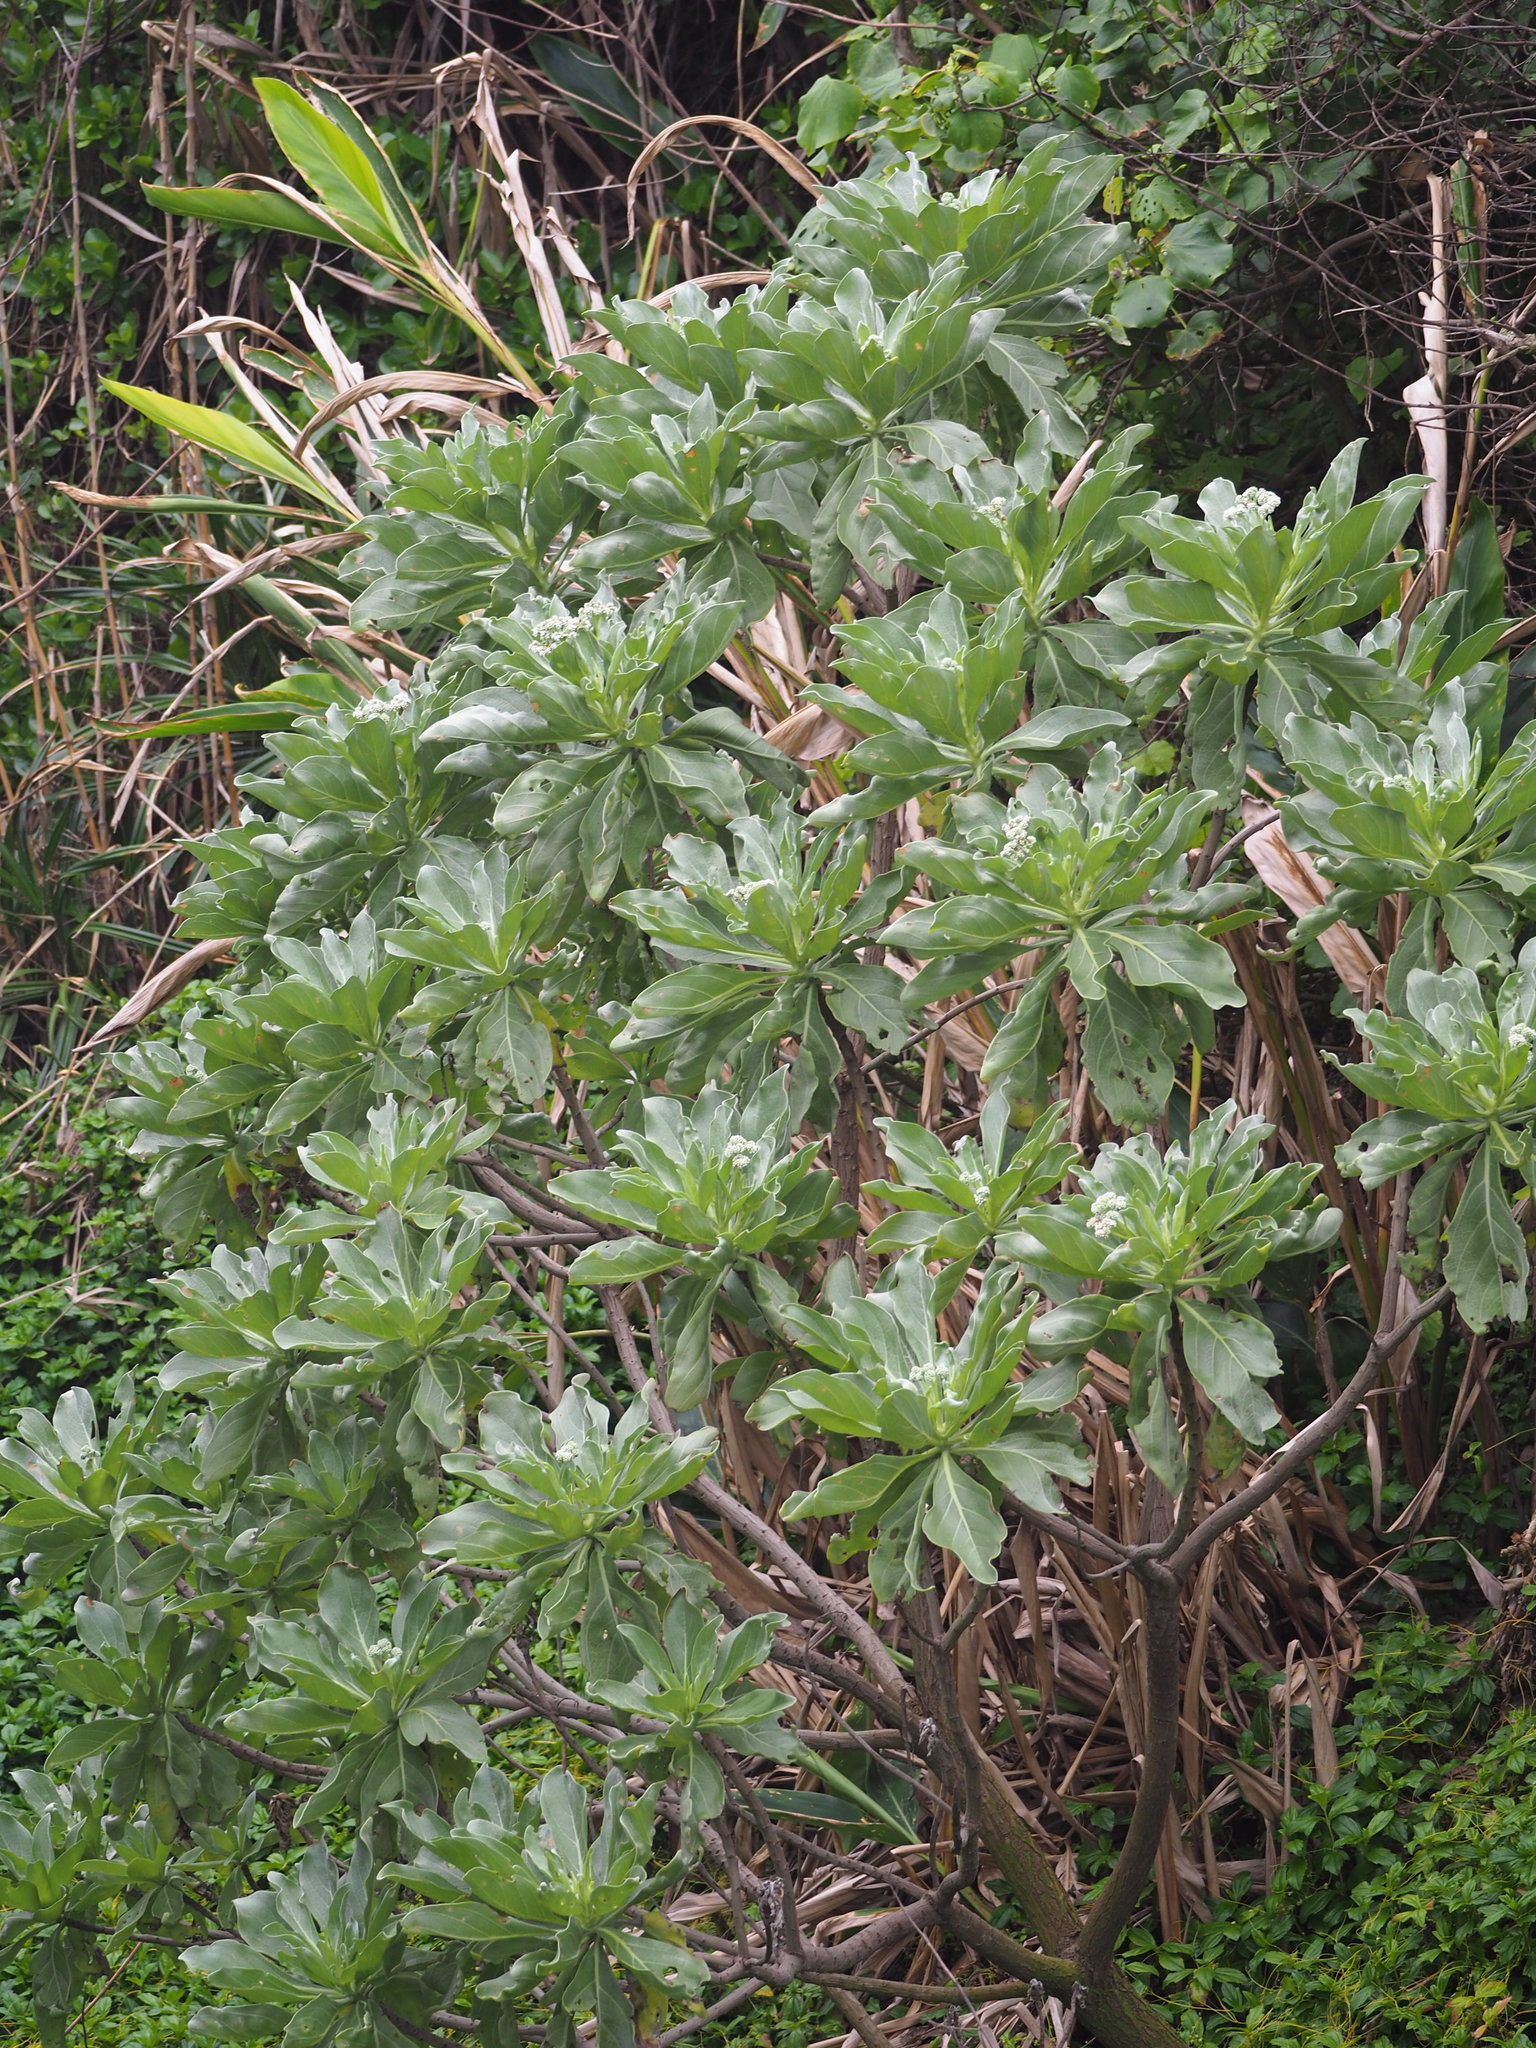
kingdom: Plantae
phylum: Tracheophyta
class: Magnoliopsida
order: Boraginales
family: Heliotropiaceae
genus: Heliotropium
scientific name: Heliotropium velutinum
